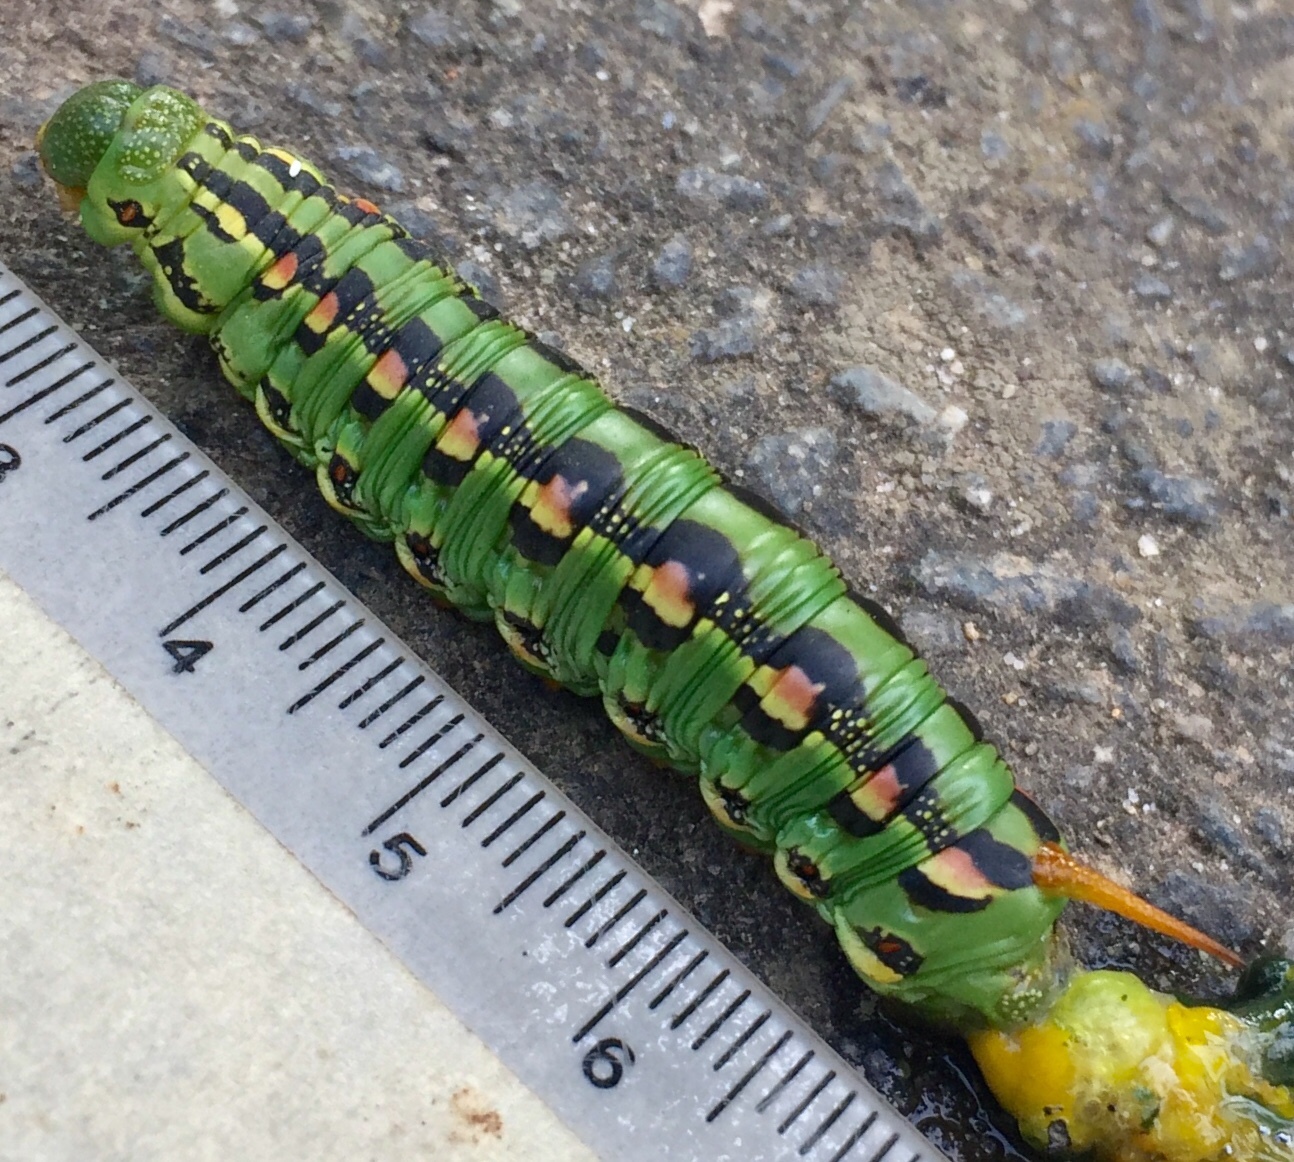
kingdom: Animalia
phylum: Arthropoda
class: Insecta
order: Lepidoptera
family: Sphingidae
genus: Hyles
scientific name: Hyles lineata
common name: White-lined sphinx
